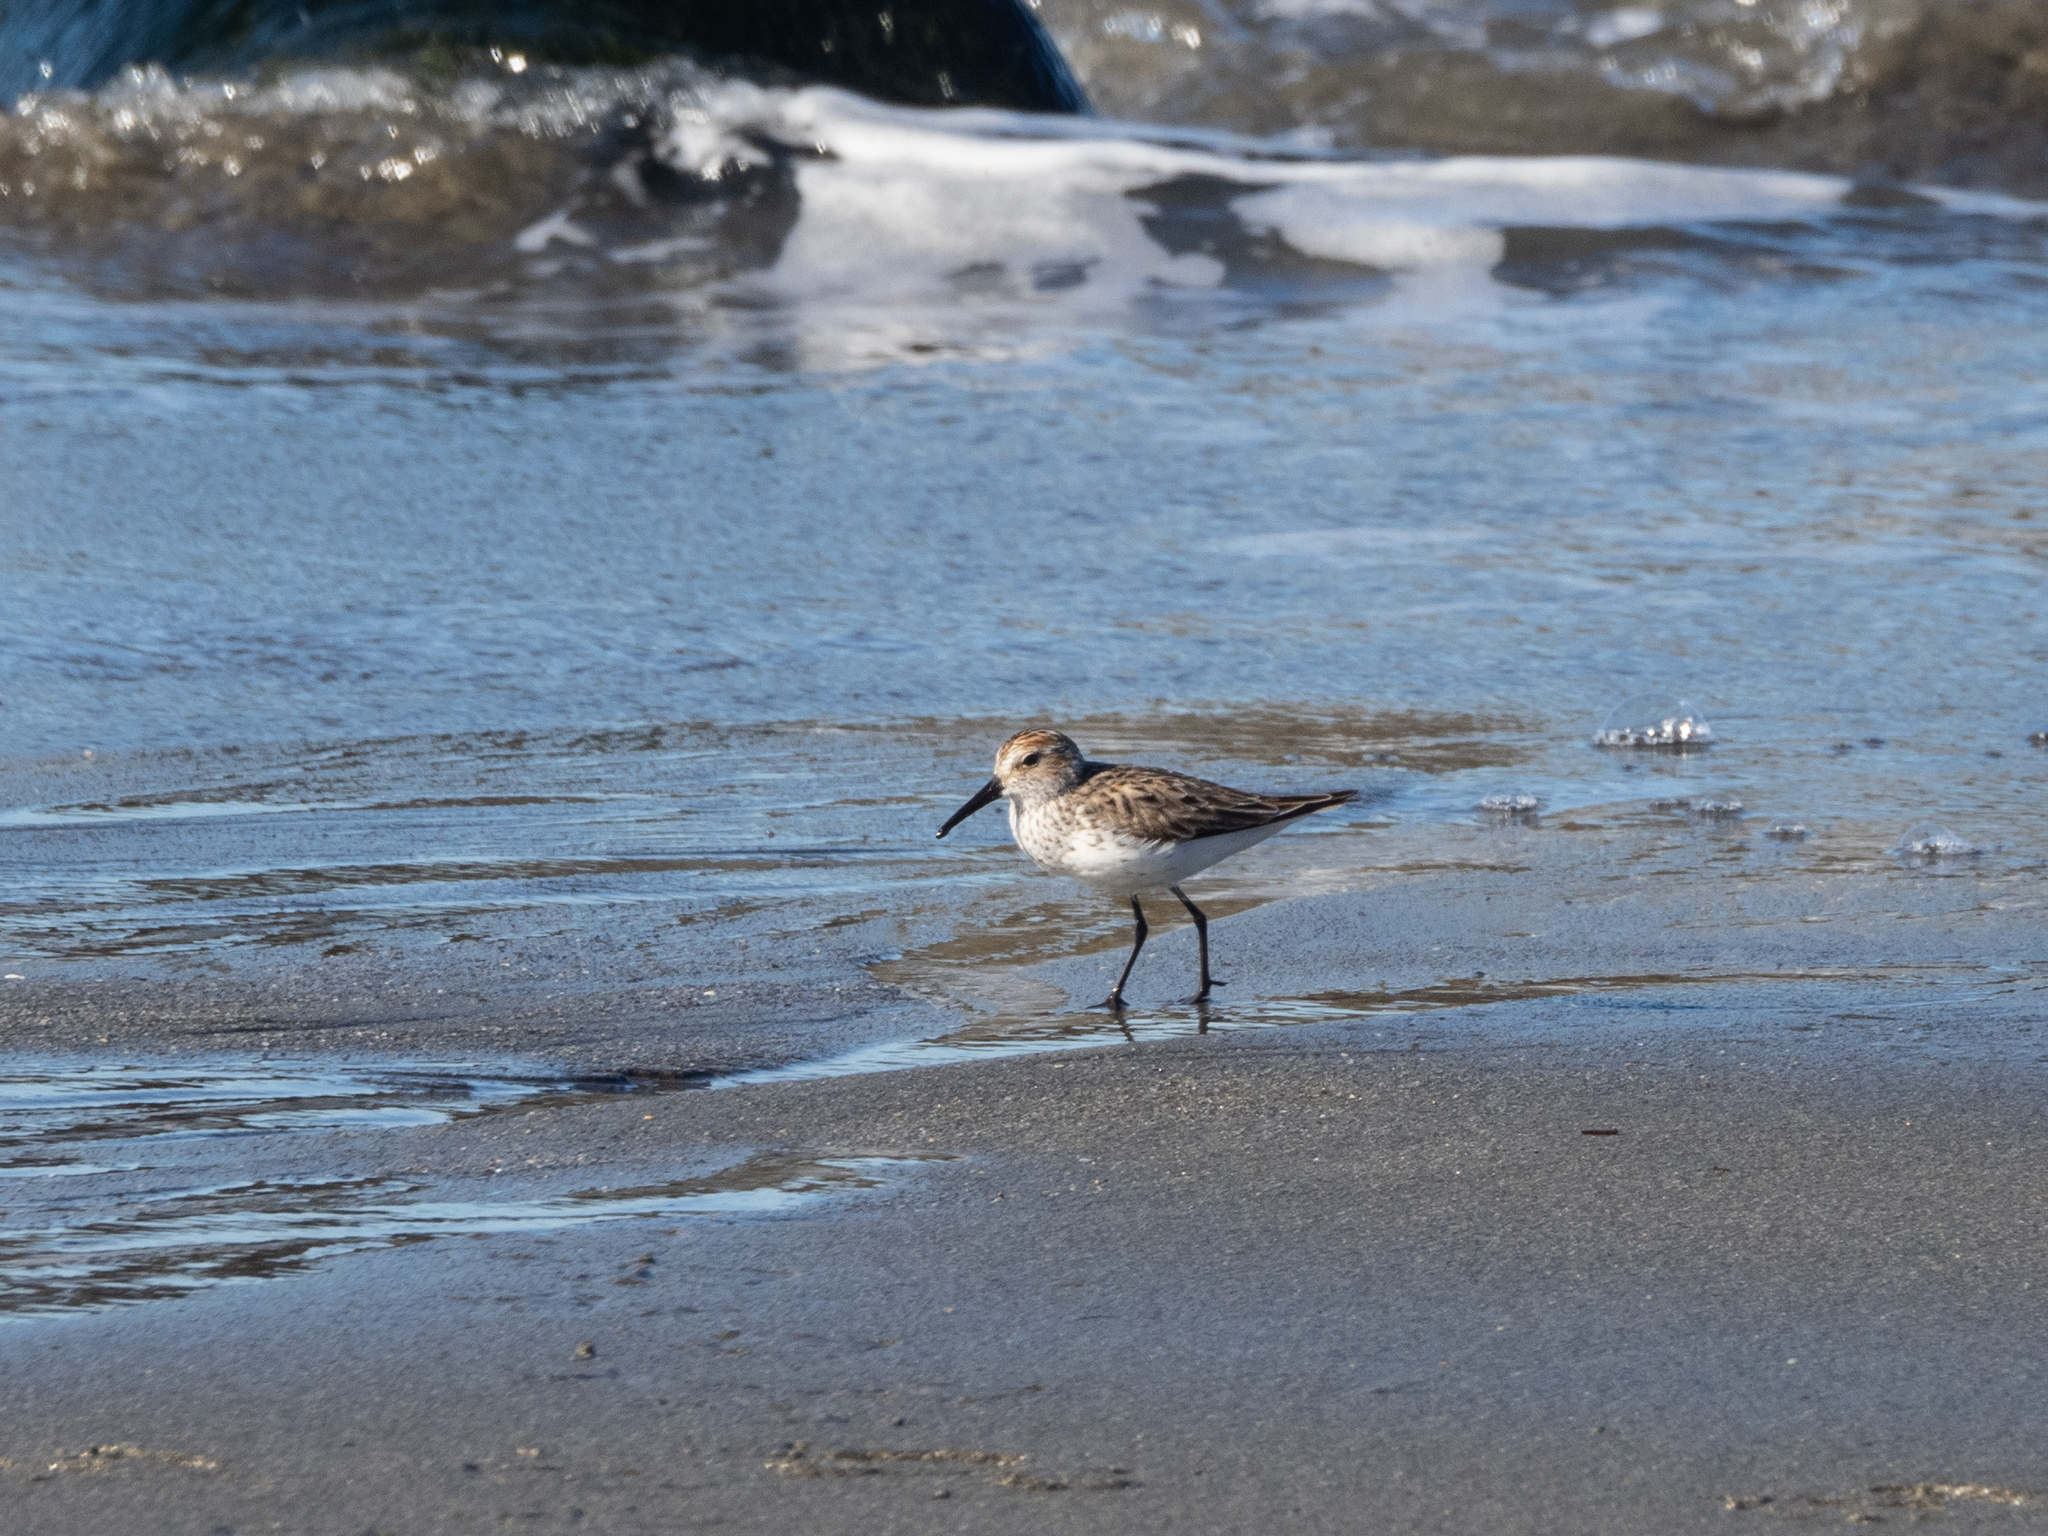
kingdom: Animalia
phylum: Chordata
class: Aves
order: Charadriiformes
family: Scolopacidae
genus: Calidris
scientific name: Calidris mauri
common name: Western sandpiper
